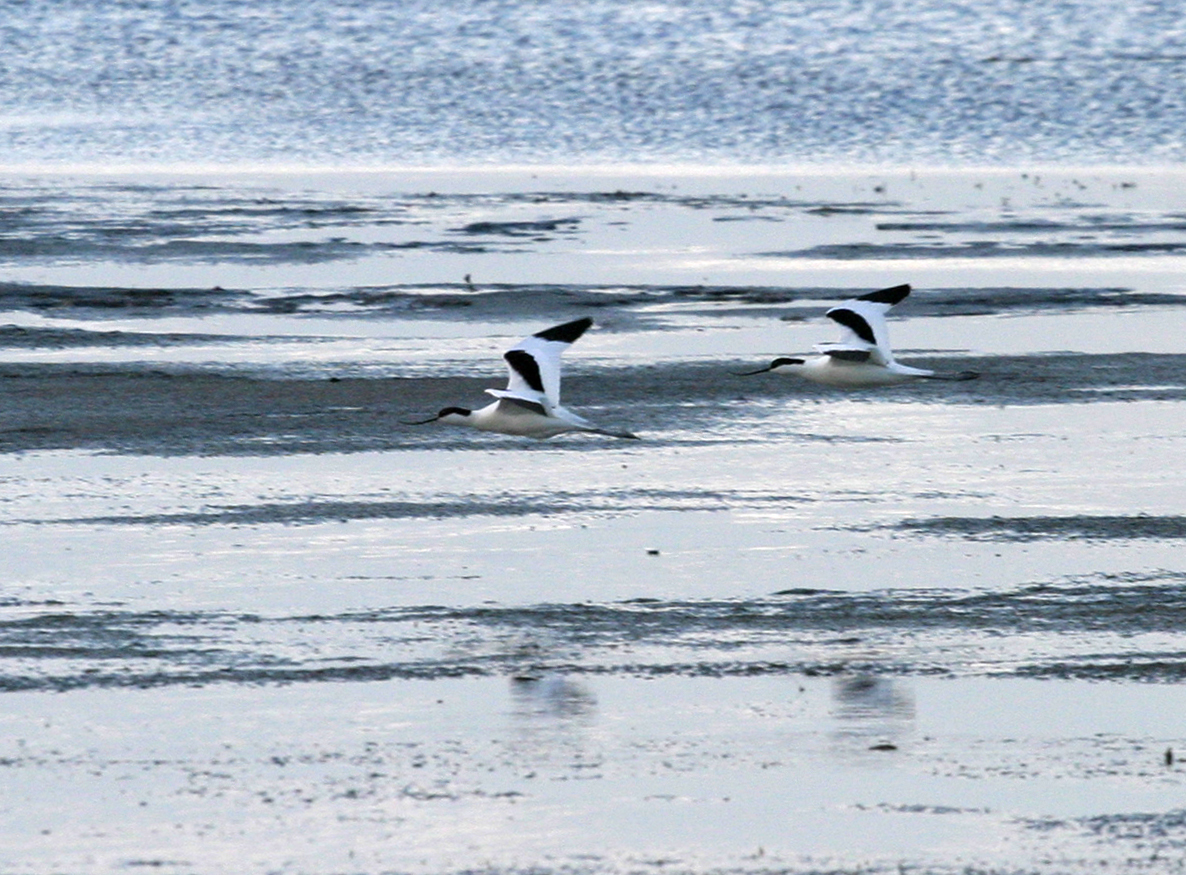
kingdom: Animalia
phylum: Chordata
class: Aves
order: Charadriiformes
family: Recurvirostridae
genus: Recurvirostra
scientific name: Recurvirostra avosetta
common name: Pied avocet
